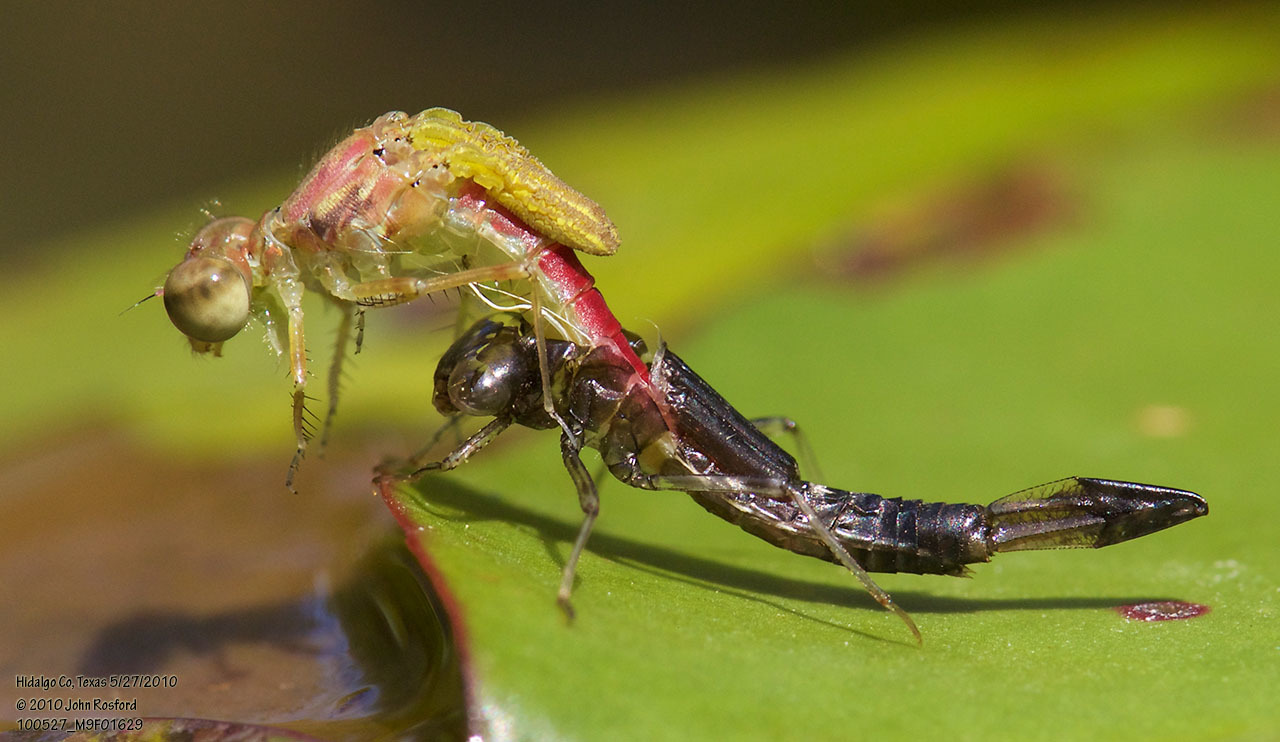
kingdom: Animalia
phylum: Arthropoda
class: Insecta
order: Odonata
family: Coenagrionidae
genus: Telebasis
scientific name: Telebasis salva
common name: Desert firetail
